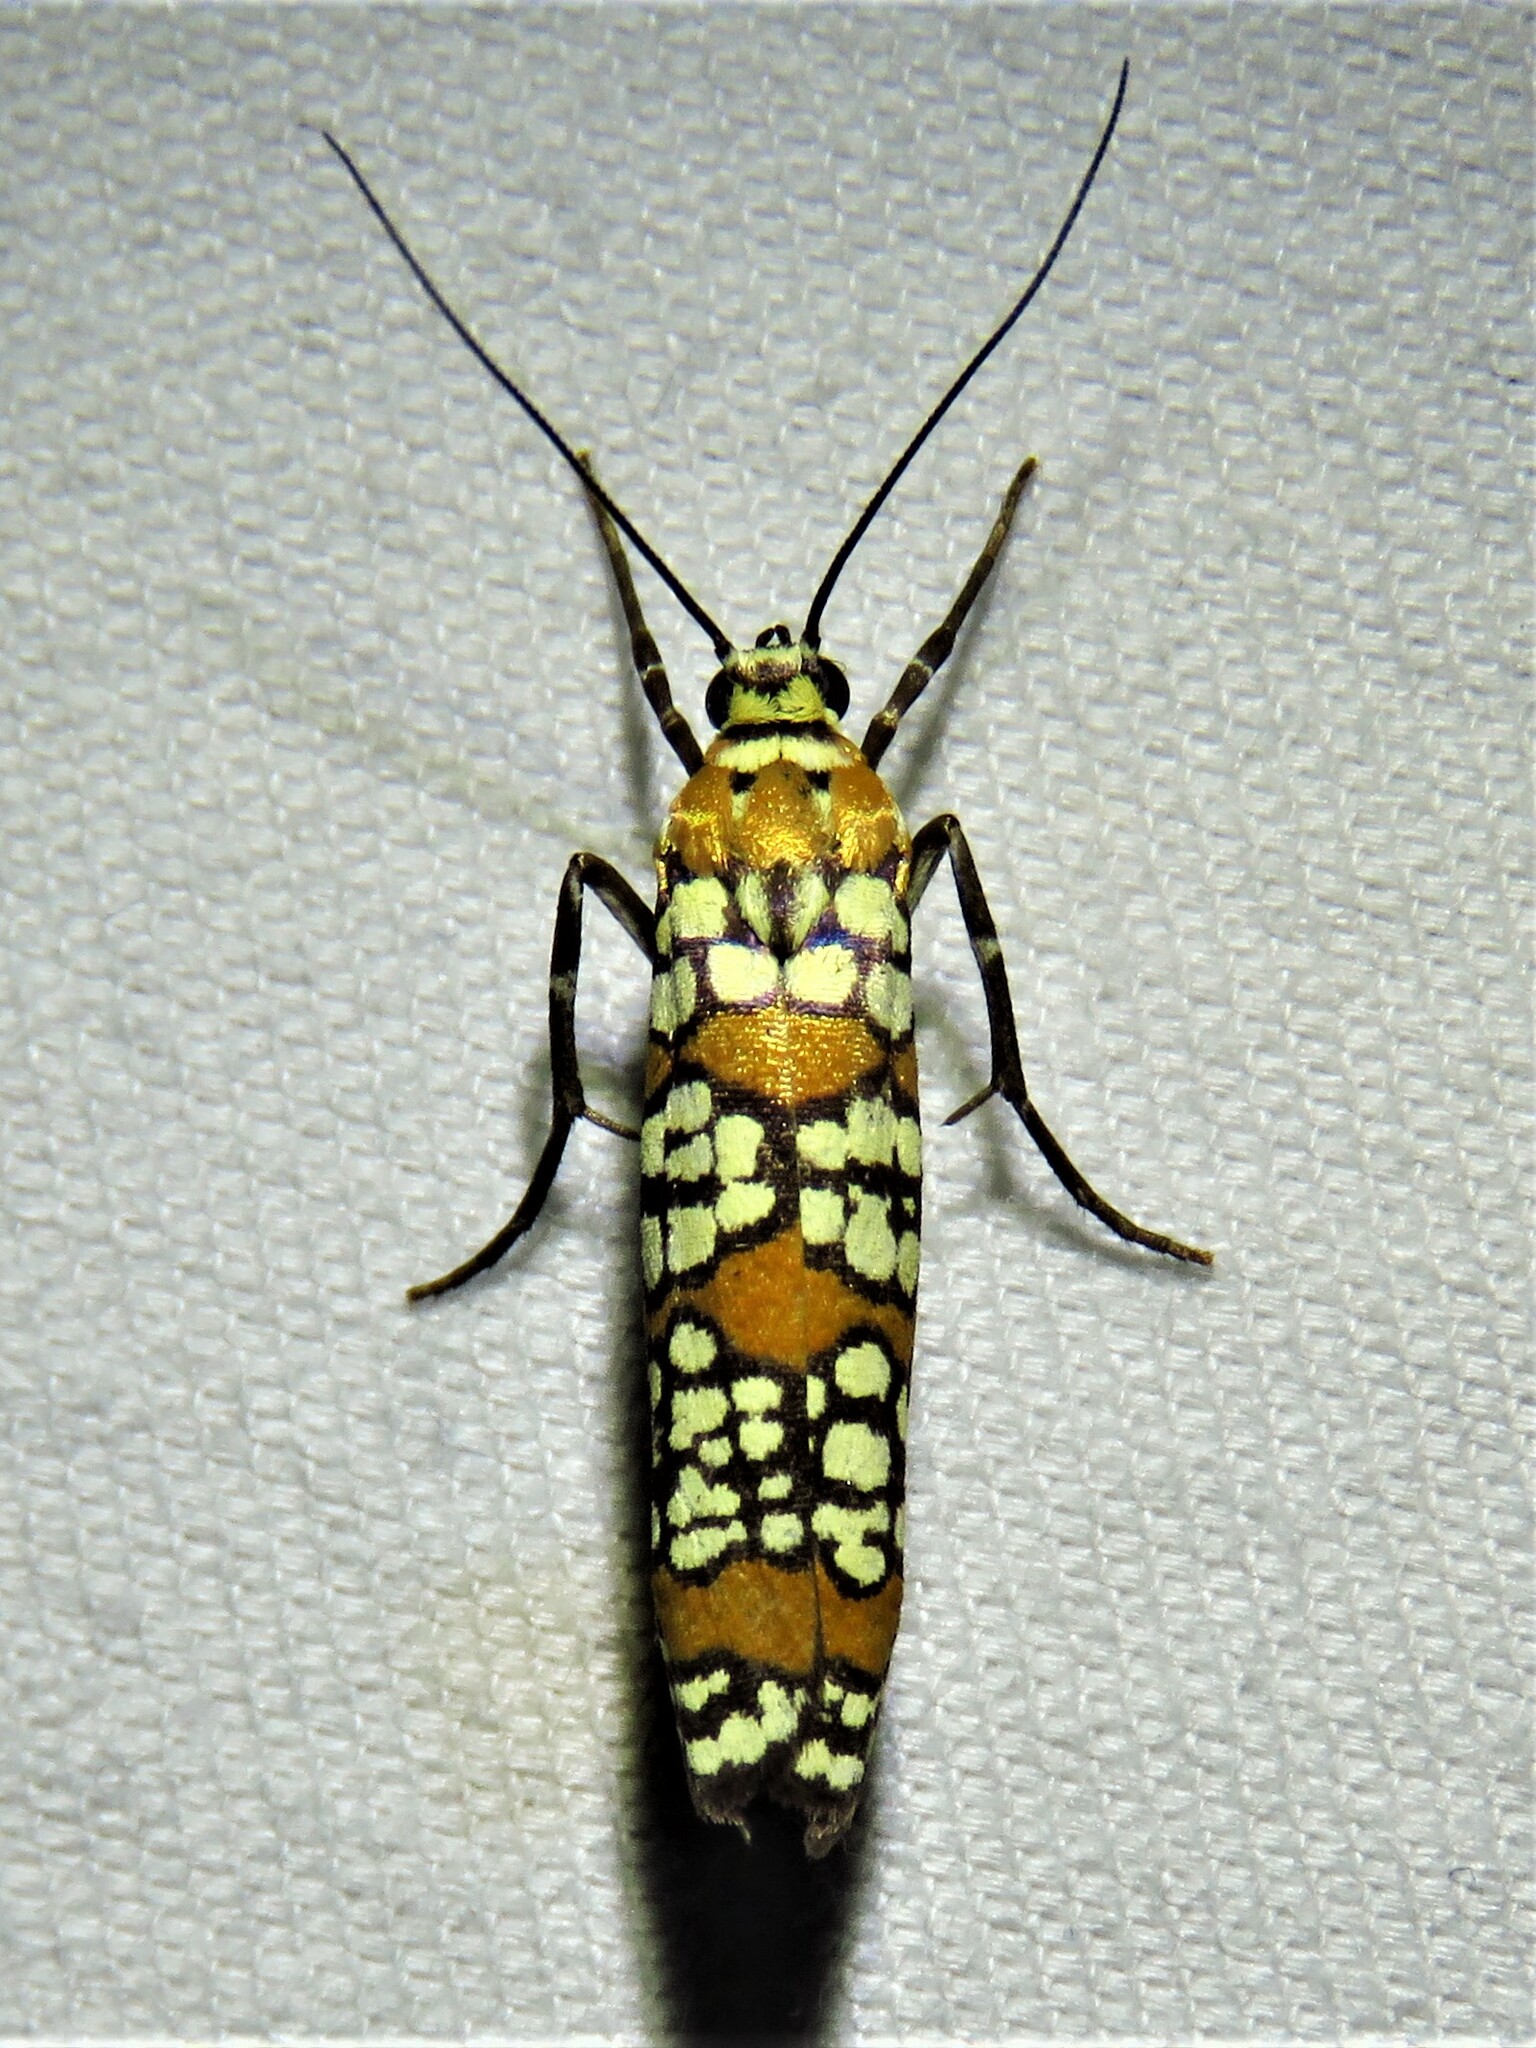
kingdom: Animalia
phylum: Arthropoda
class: Insecta
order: Lepidoptera
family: Attevidae
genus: Atteva
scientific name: Atteva punctella
